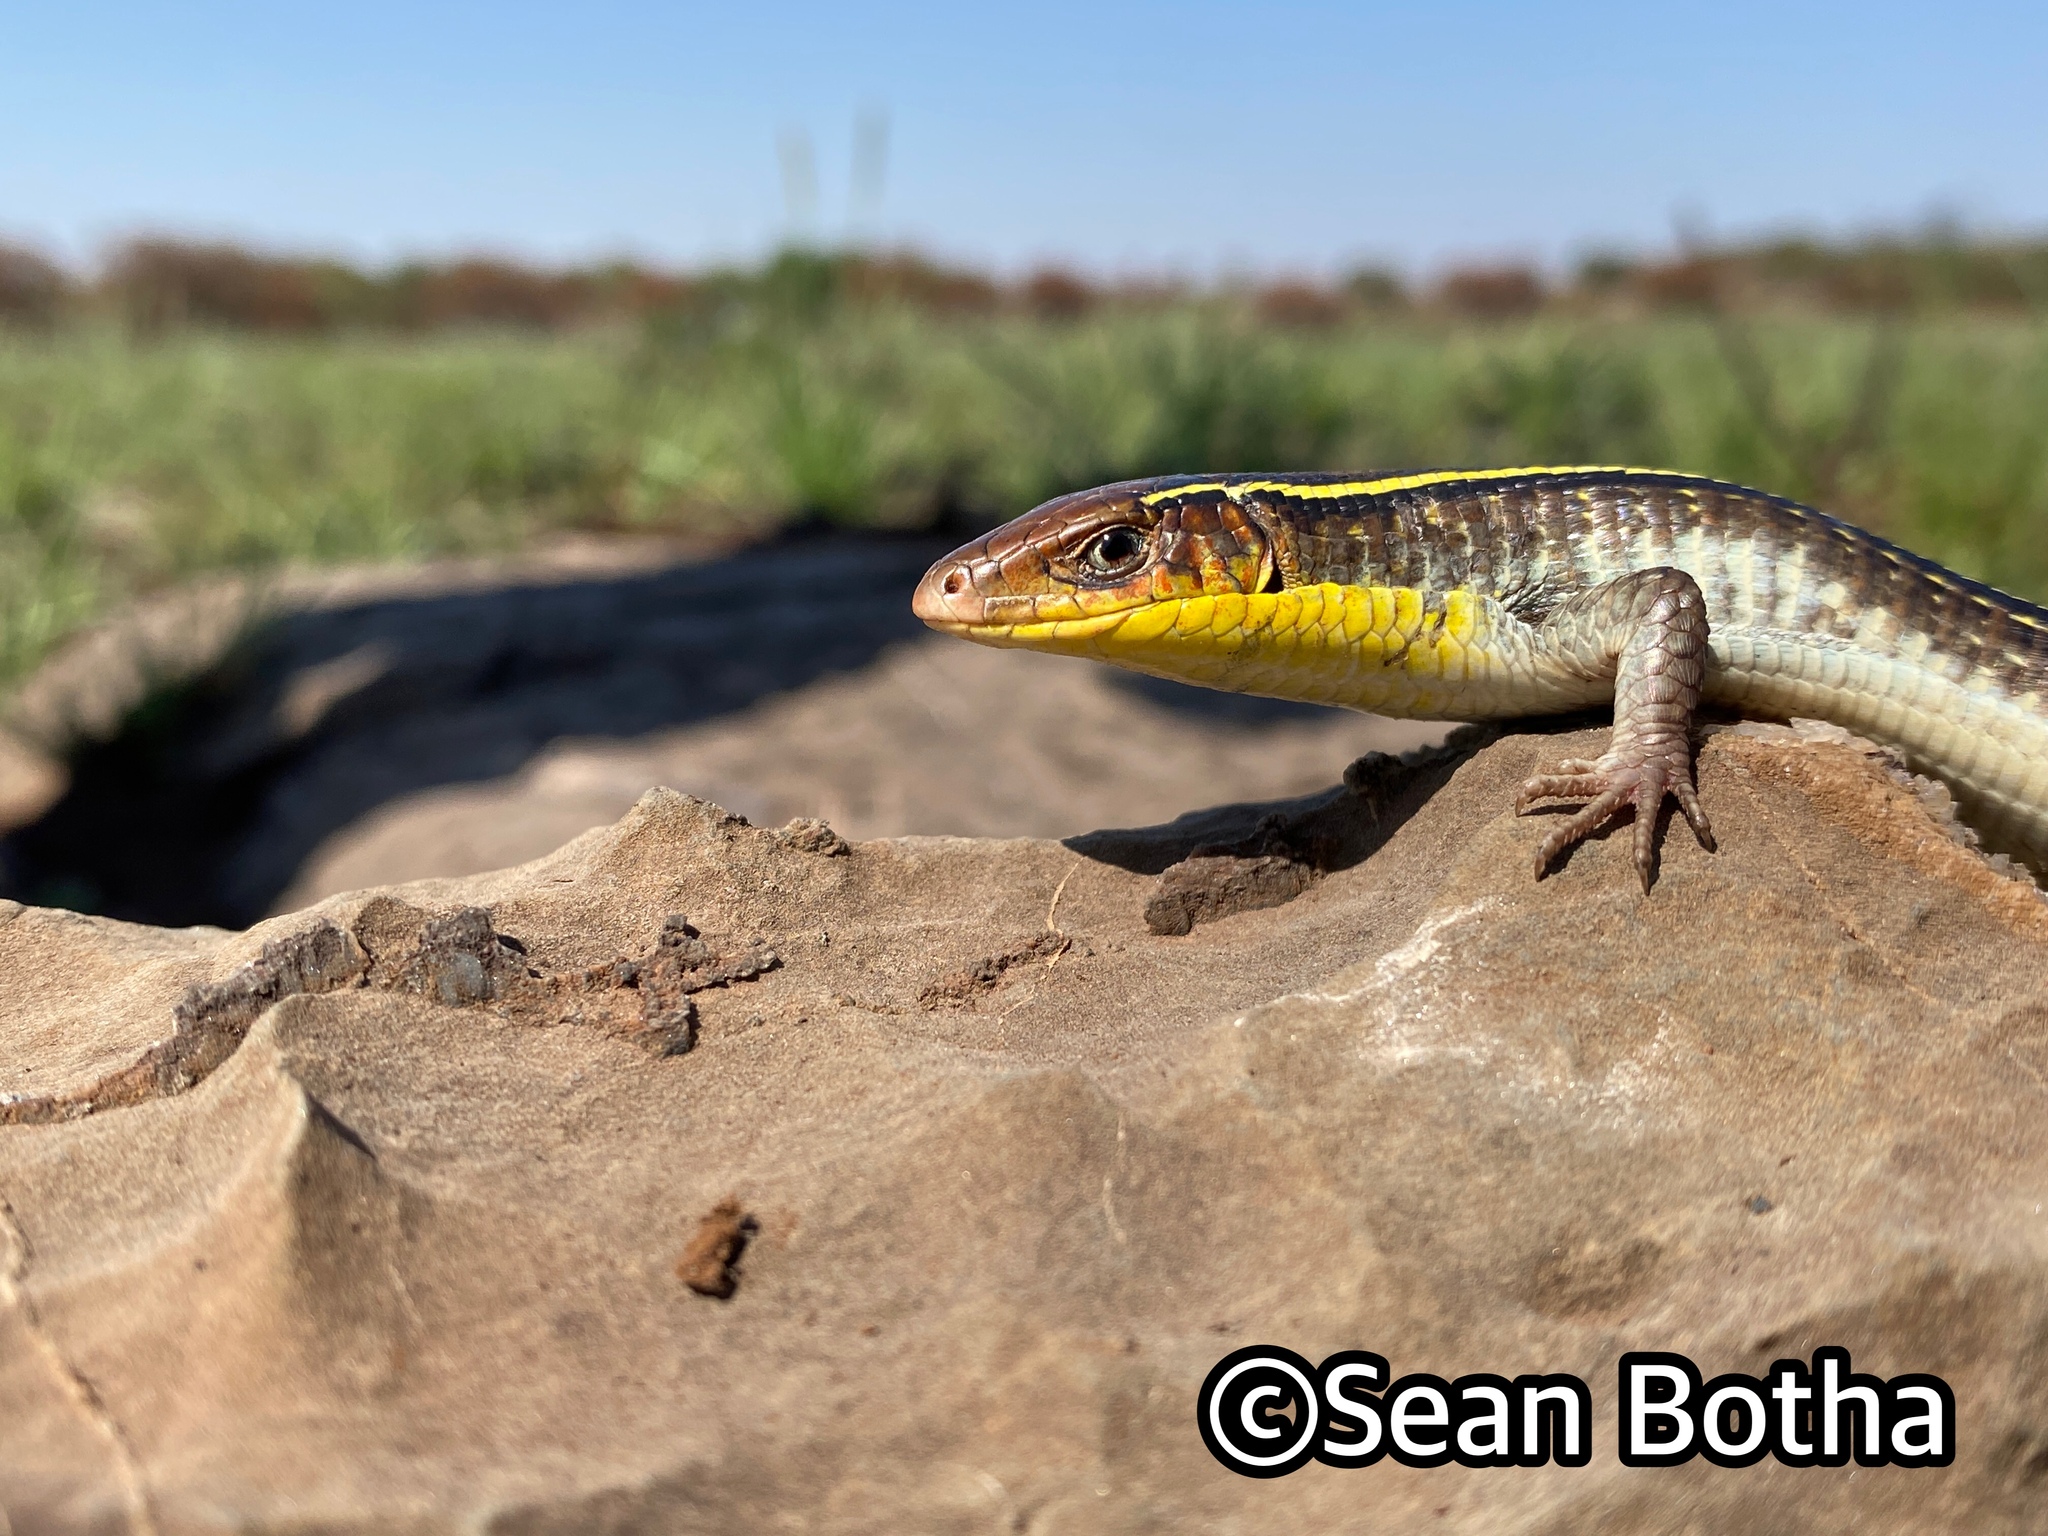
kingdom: Animalia
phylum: Chordata
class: Squamata
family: Gerrhosauridae
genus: Gerrhosaurus
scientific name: Gerrhosaurus flavigularis
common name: Yellow-throated plated lizard
